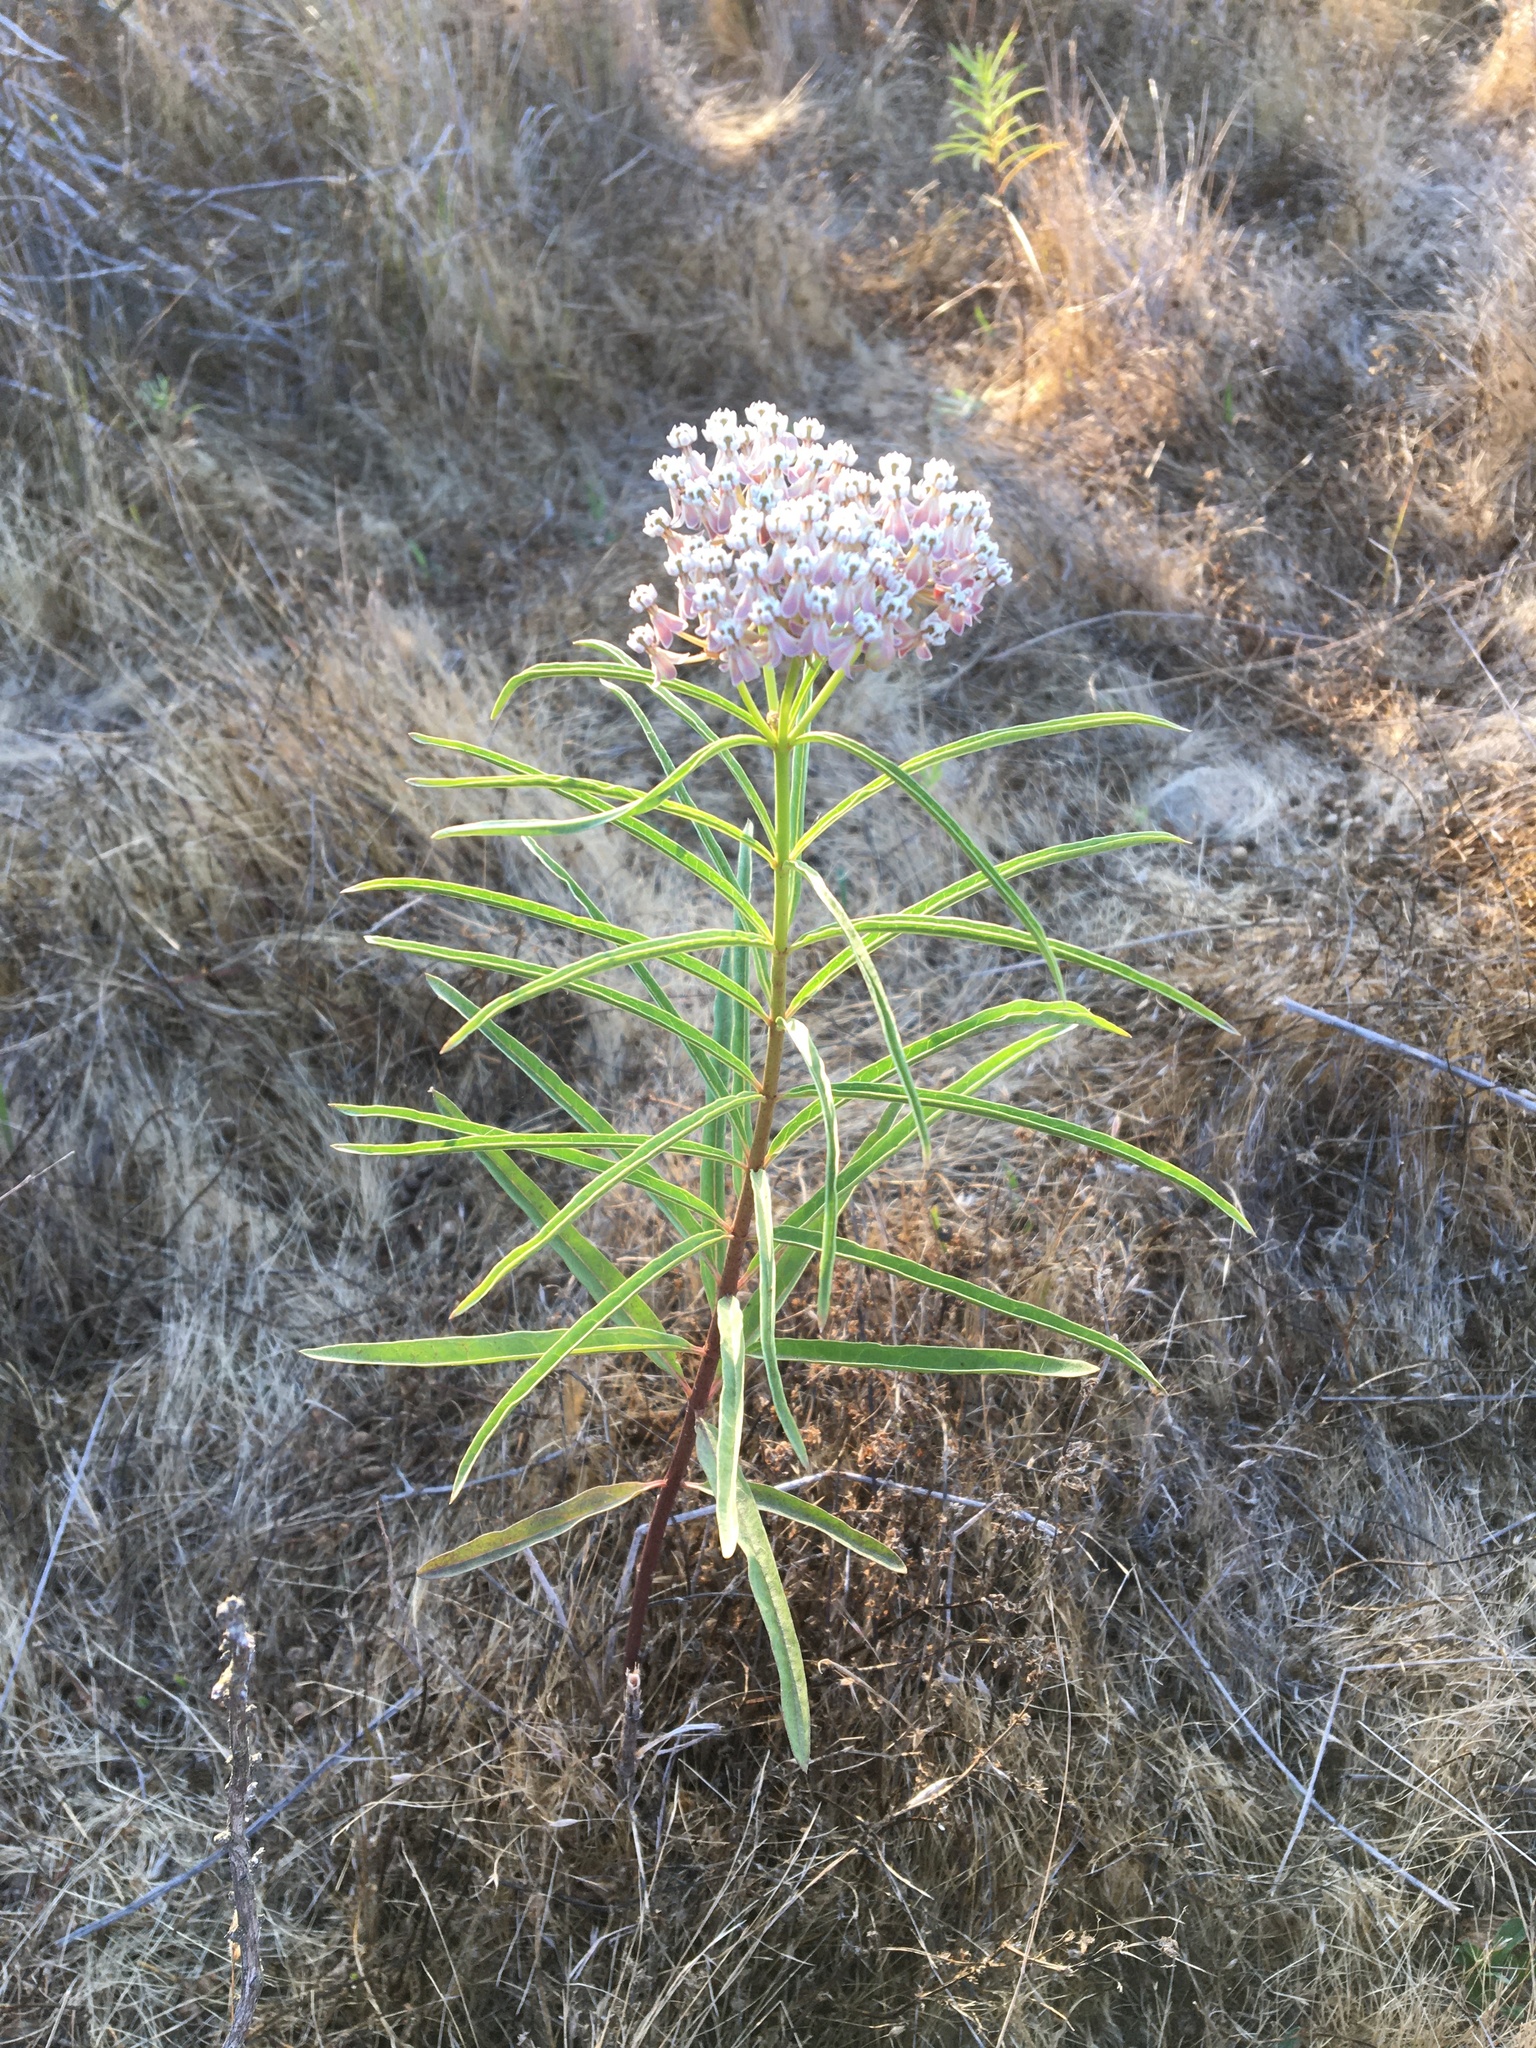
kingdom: Plantae
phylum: Tracheophyta
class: Magnoliopsida
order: Gentianales
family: Apocynaceae
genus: Asclepias
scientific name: Asclepias fascicularis
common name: Mexican milkweed
